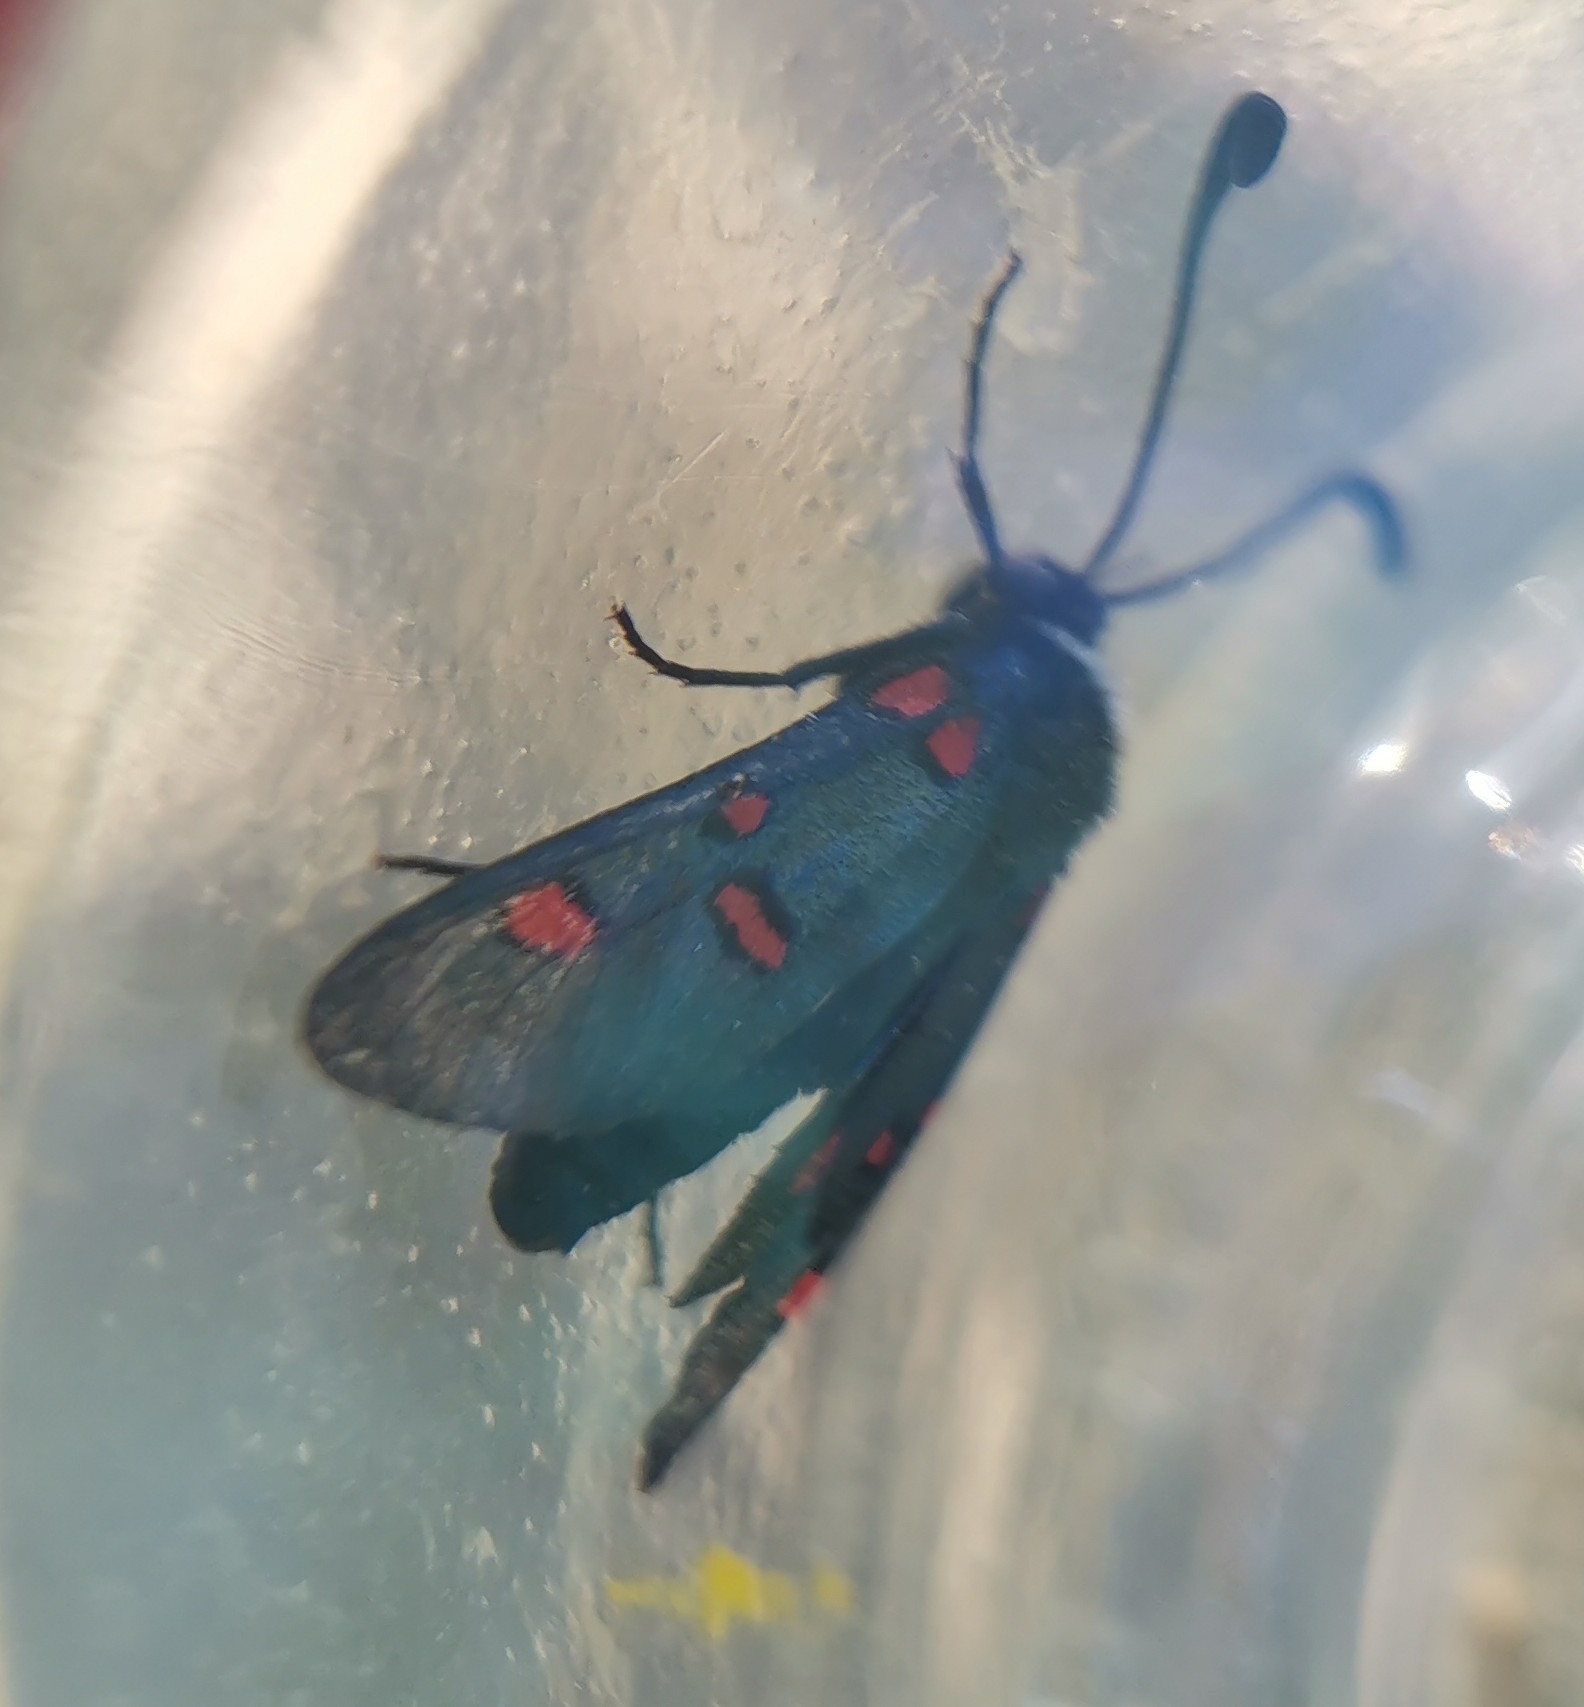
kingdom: Animalia
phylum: Arthropoda
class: Insecta
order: Lepidoptera
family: Zygaenidae
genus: Zygaena
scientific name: Zygaena lavandulae
